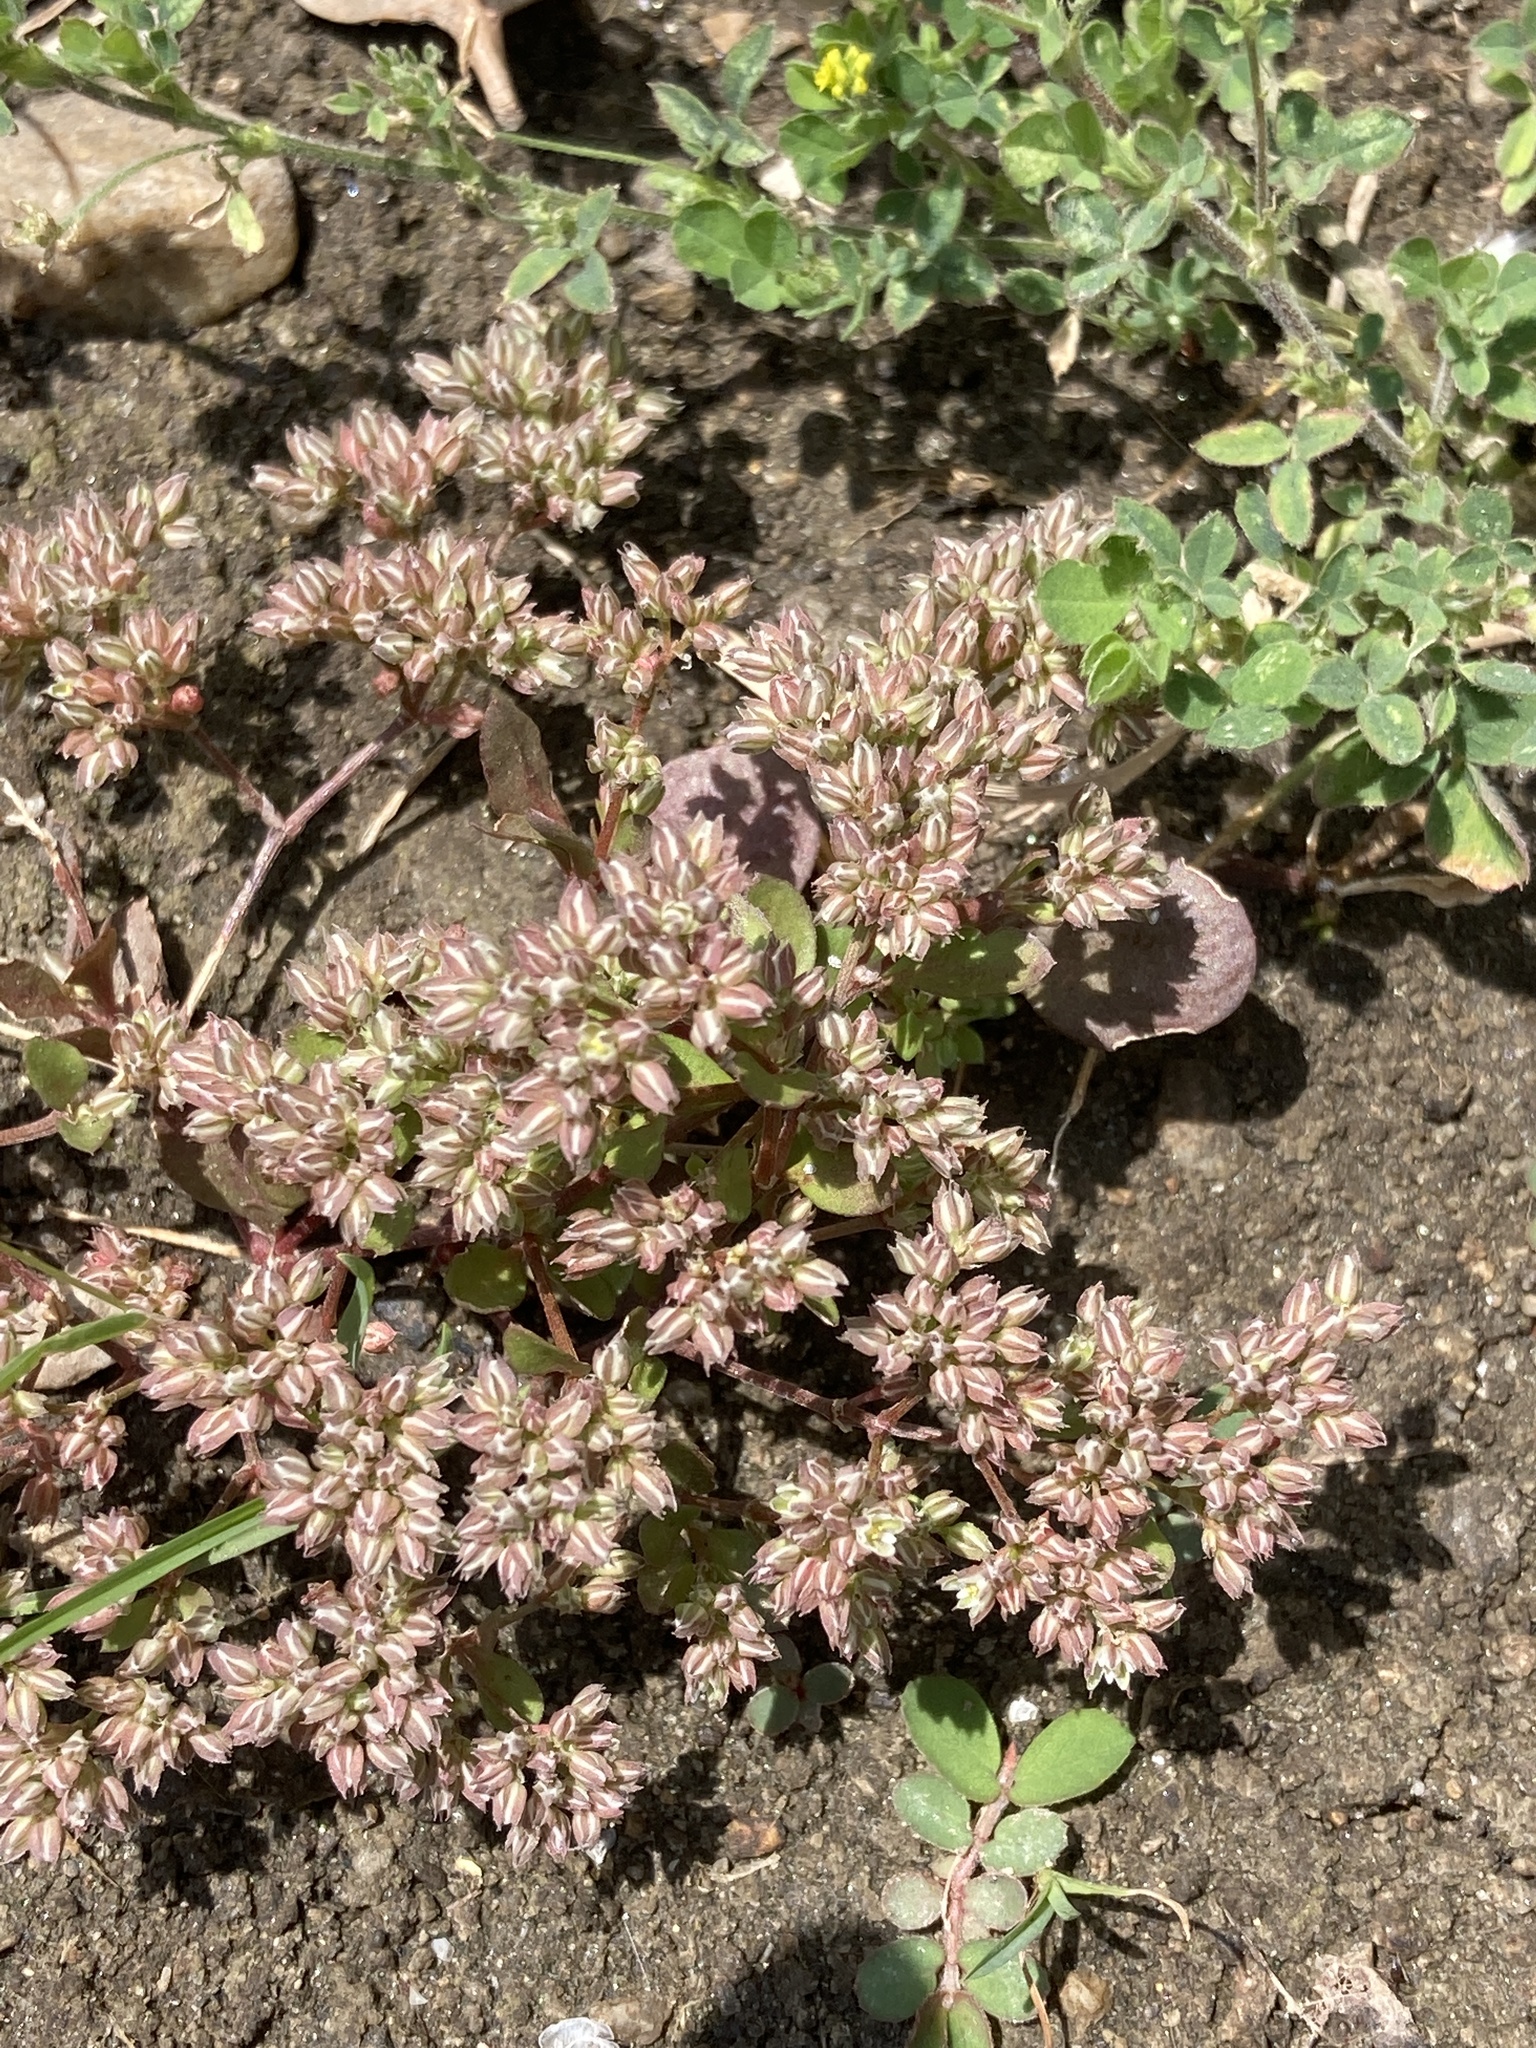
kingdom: Plantae
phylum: Tracheophyta
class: Magnoliopsida
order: Caryophyllales
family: Caryophyllaceae
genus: Polycarpon
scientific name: Polycarpon tetraphyllum
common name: Four-leaved all-seed
